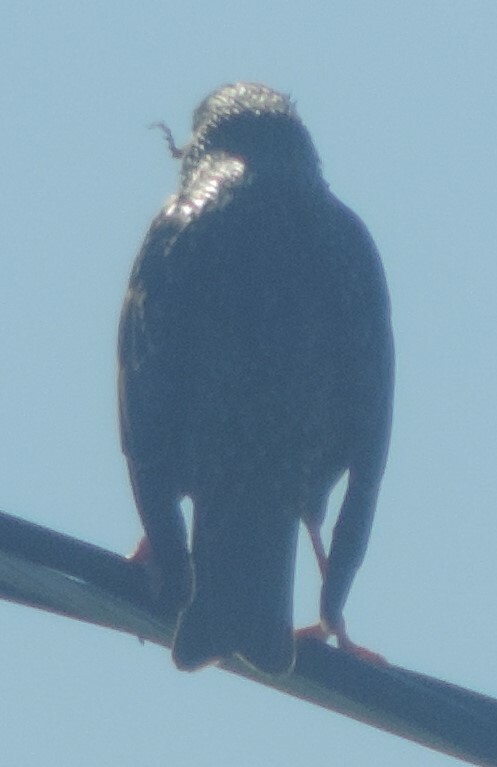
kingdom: Animalia
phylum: Chordata
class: Aves
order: Passeriformes
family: Sturnidae
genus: Sturnus
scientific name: Sturnus vulgaris
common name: Common starling
